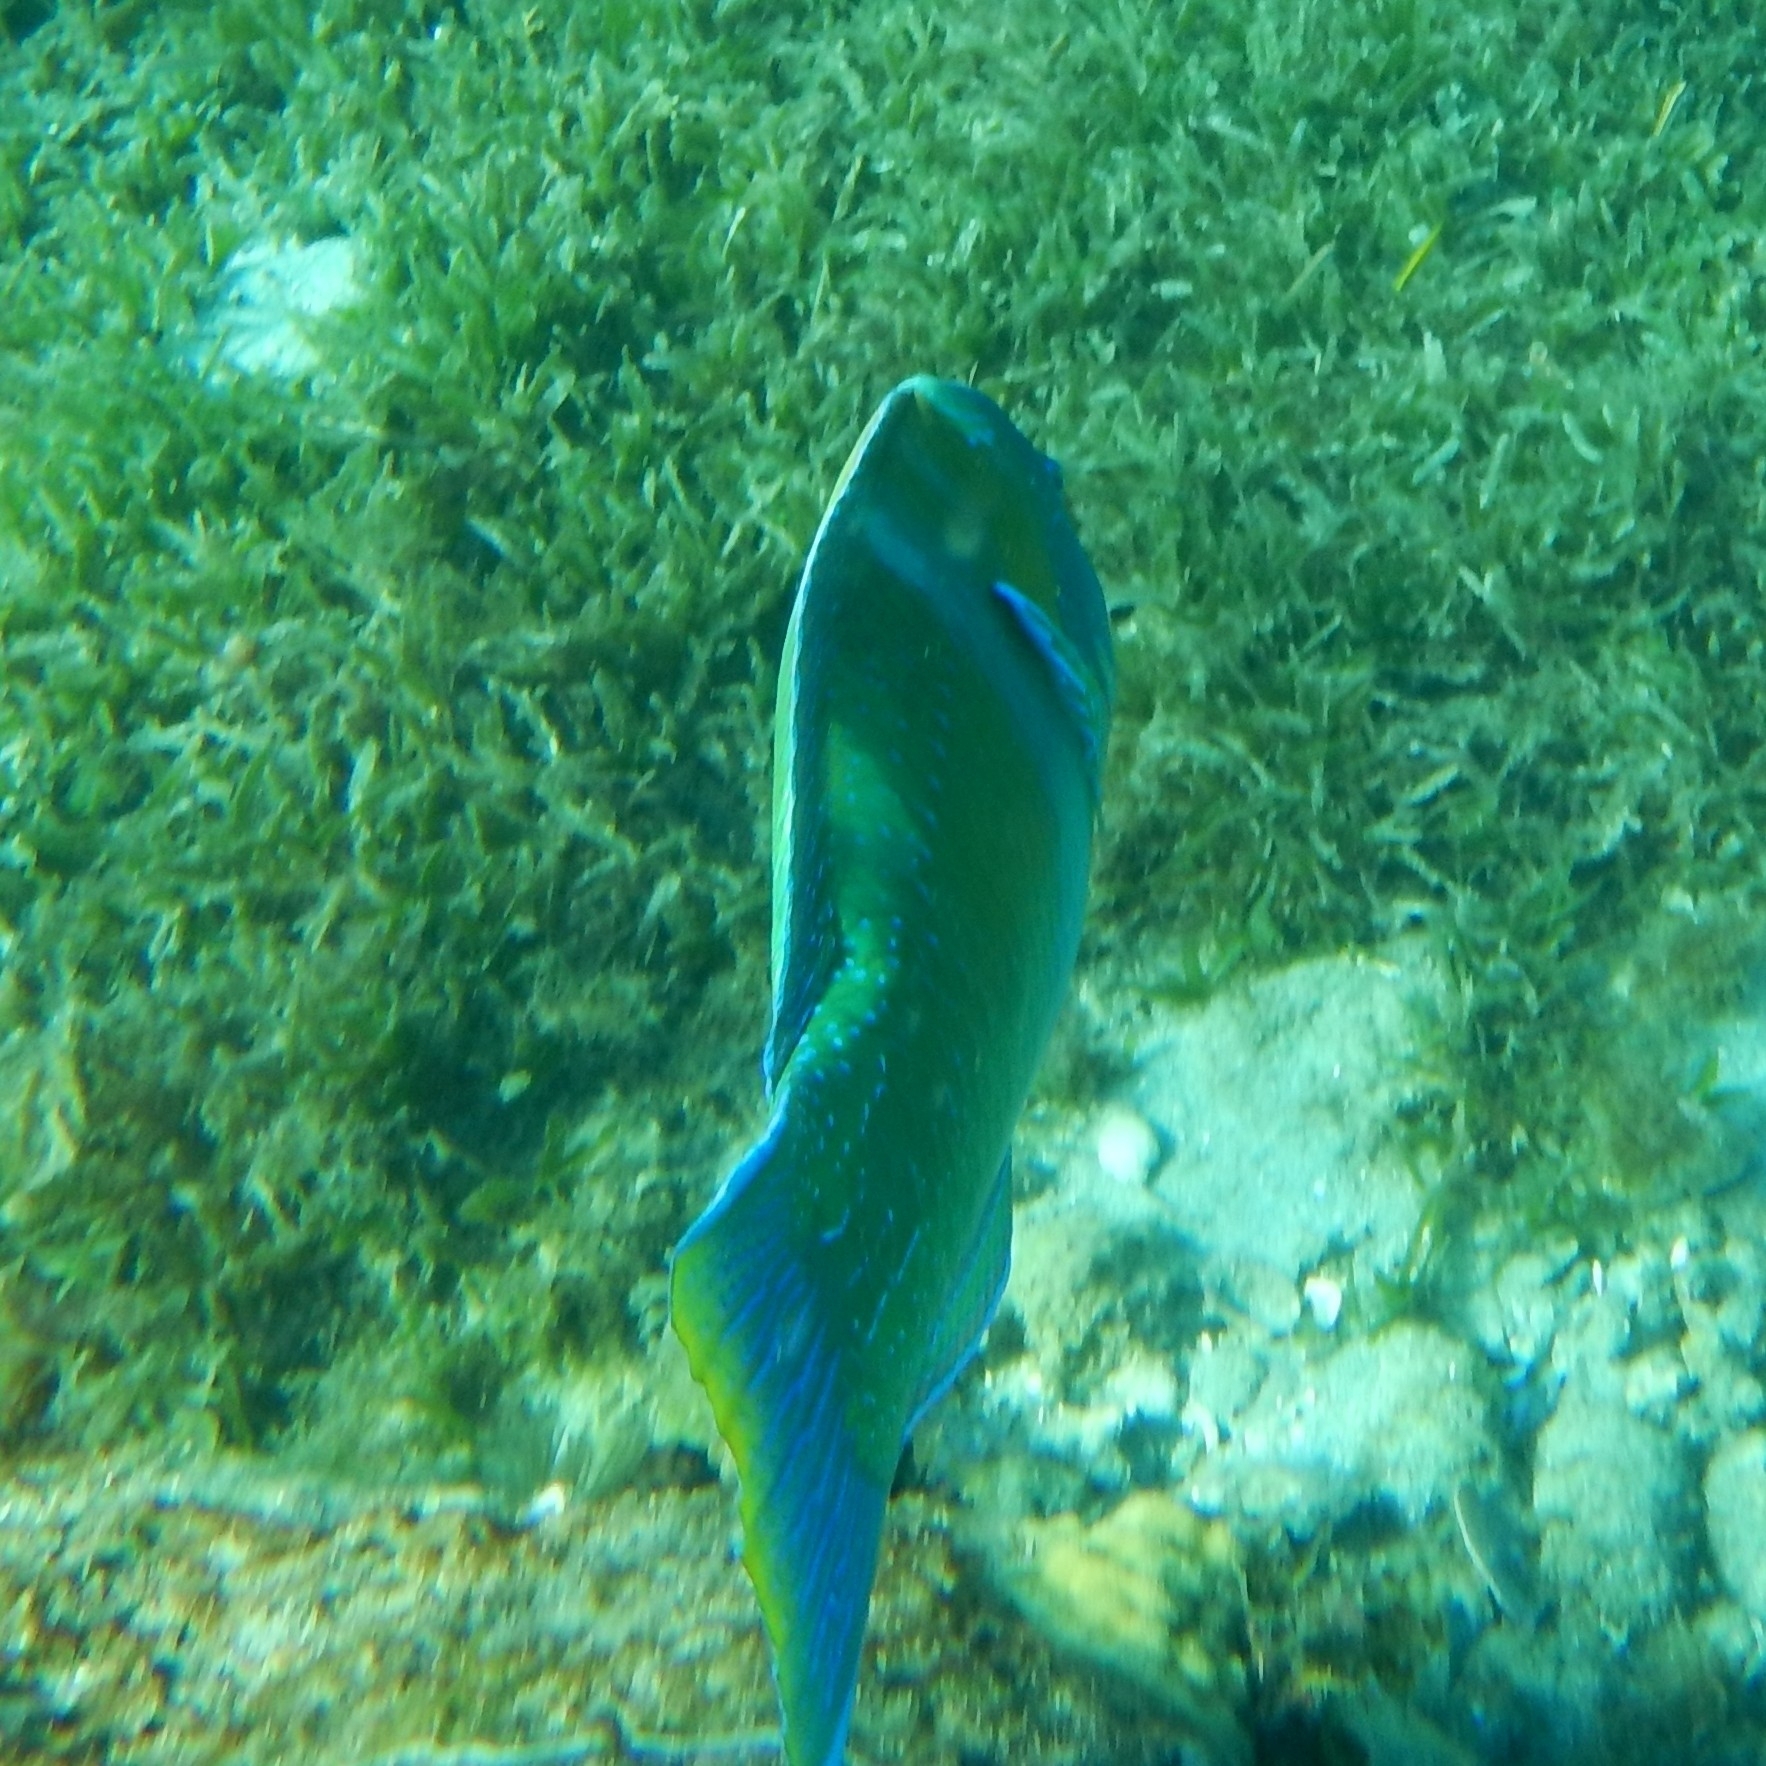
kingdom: Animalia
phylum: Chordata
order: Perciformes
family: Labridae
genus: Halichoeres
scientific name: Halichoeres radiatus
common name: Puddingwife
